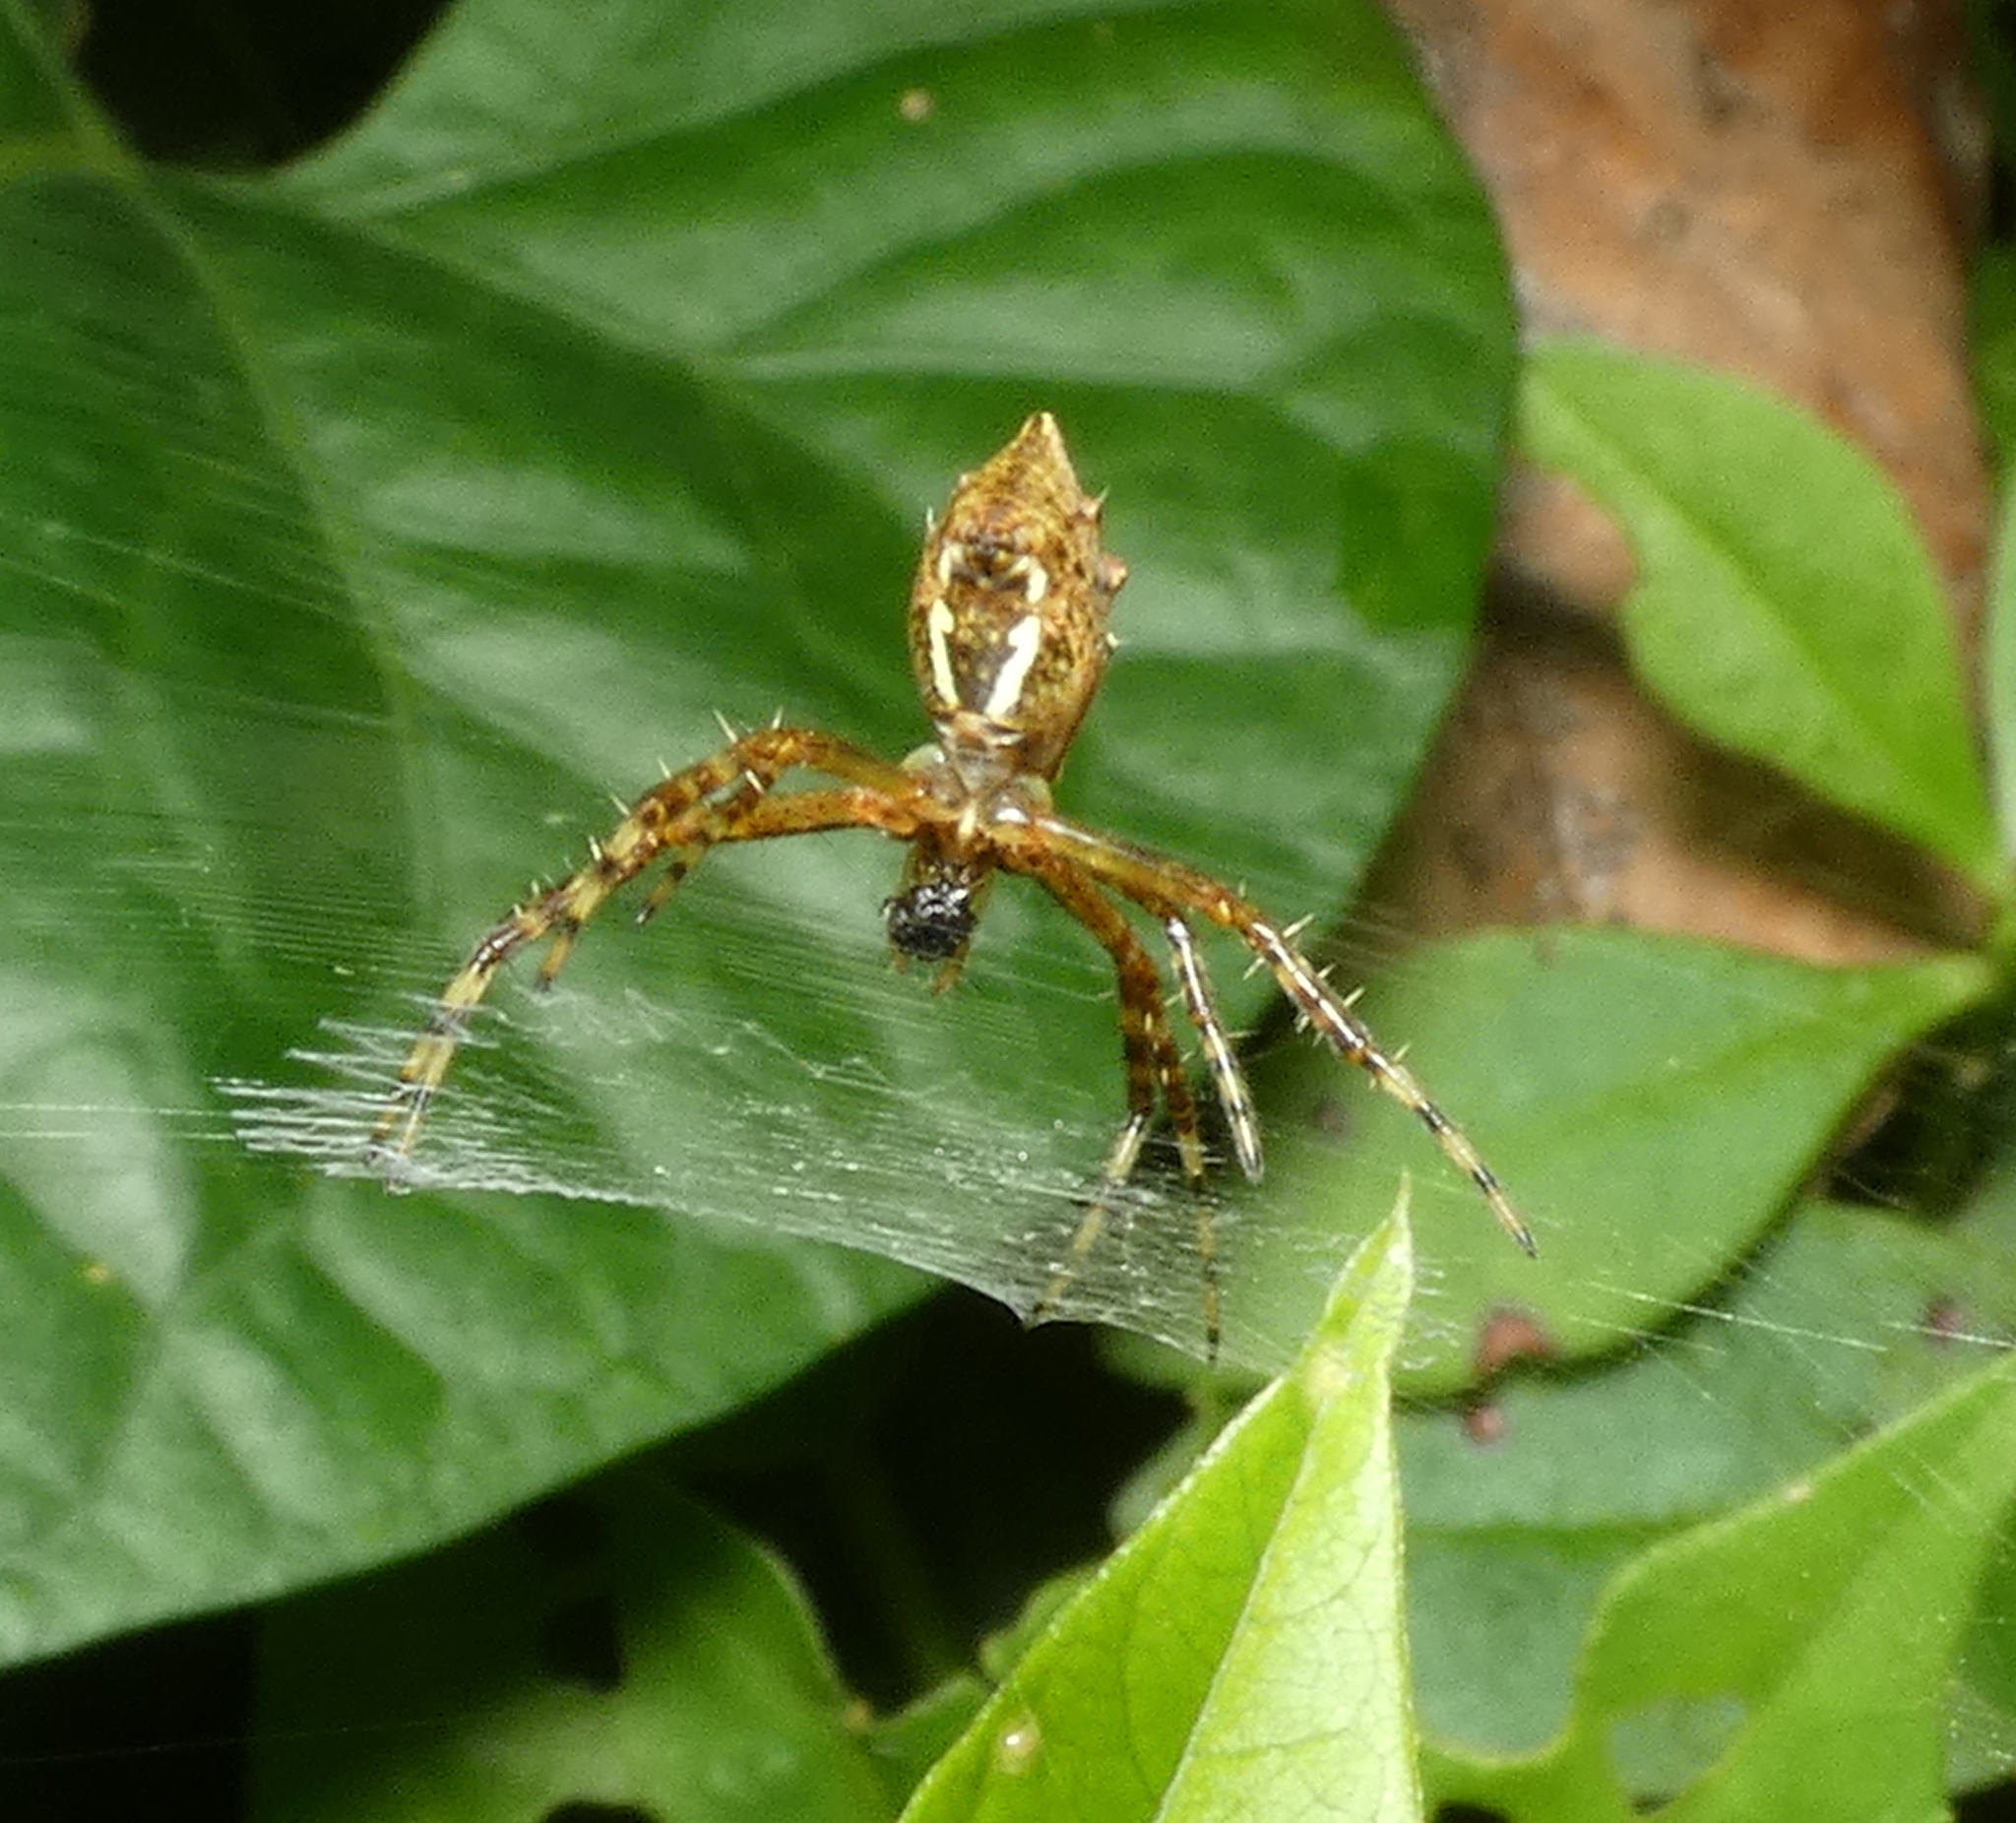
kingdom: Animalia
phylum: Arthropoda
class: Arachnida
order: Araneae
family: Araneidae
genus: Argiope
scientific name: Argiope argentata
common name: Orb weavers
